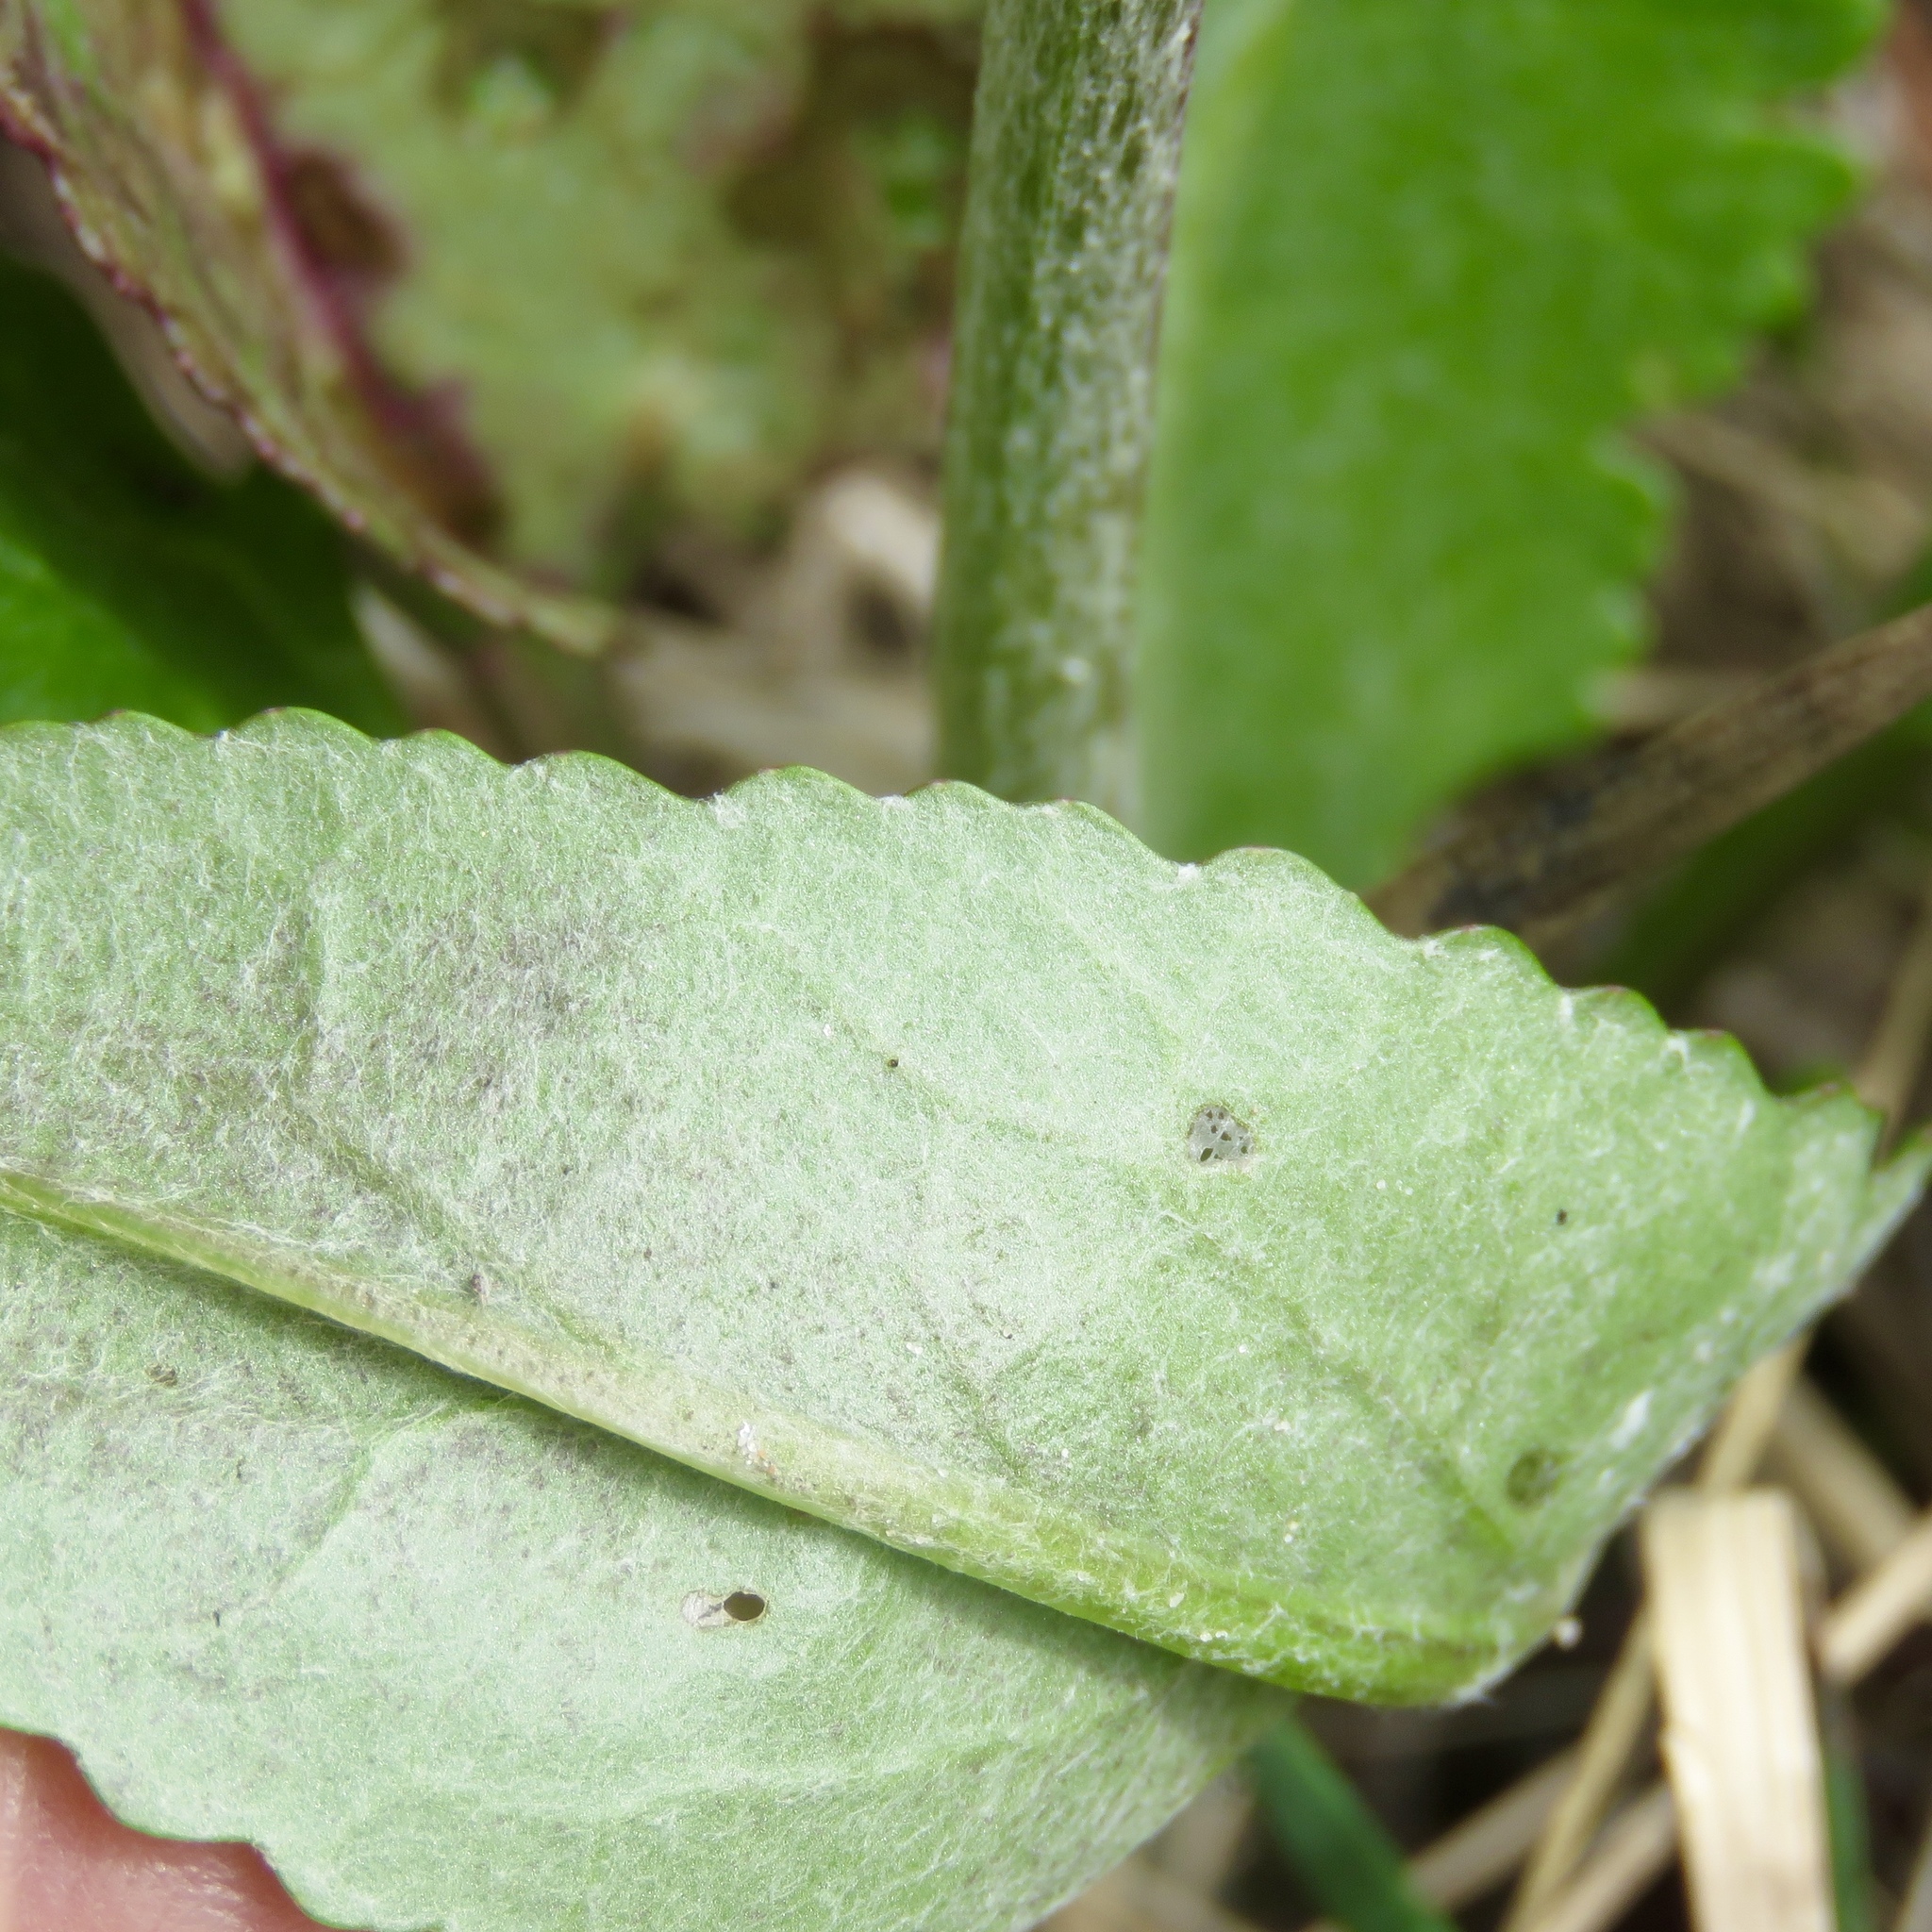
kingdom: Plantae
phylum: Tracheophyta
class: Magnoliopsida
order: Asterales
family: Asteraceae
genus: Packera
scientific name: Packera dubia
